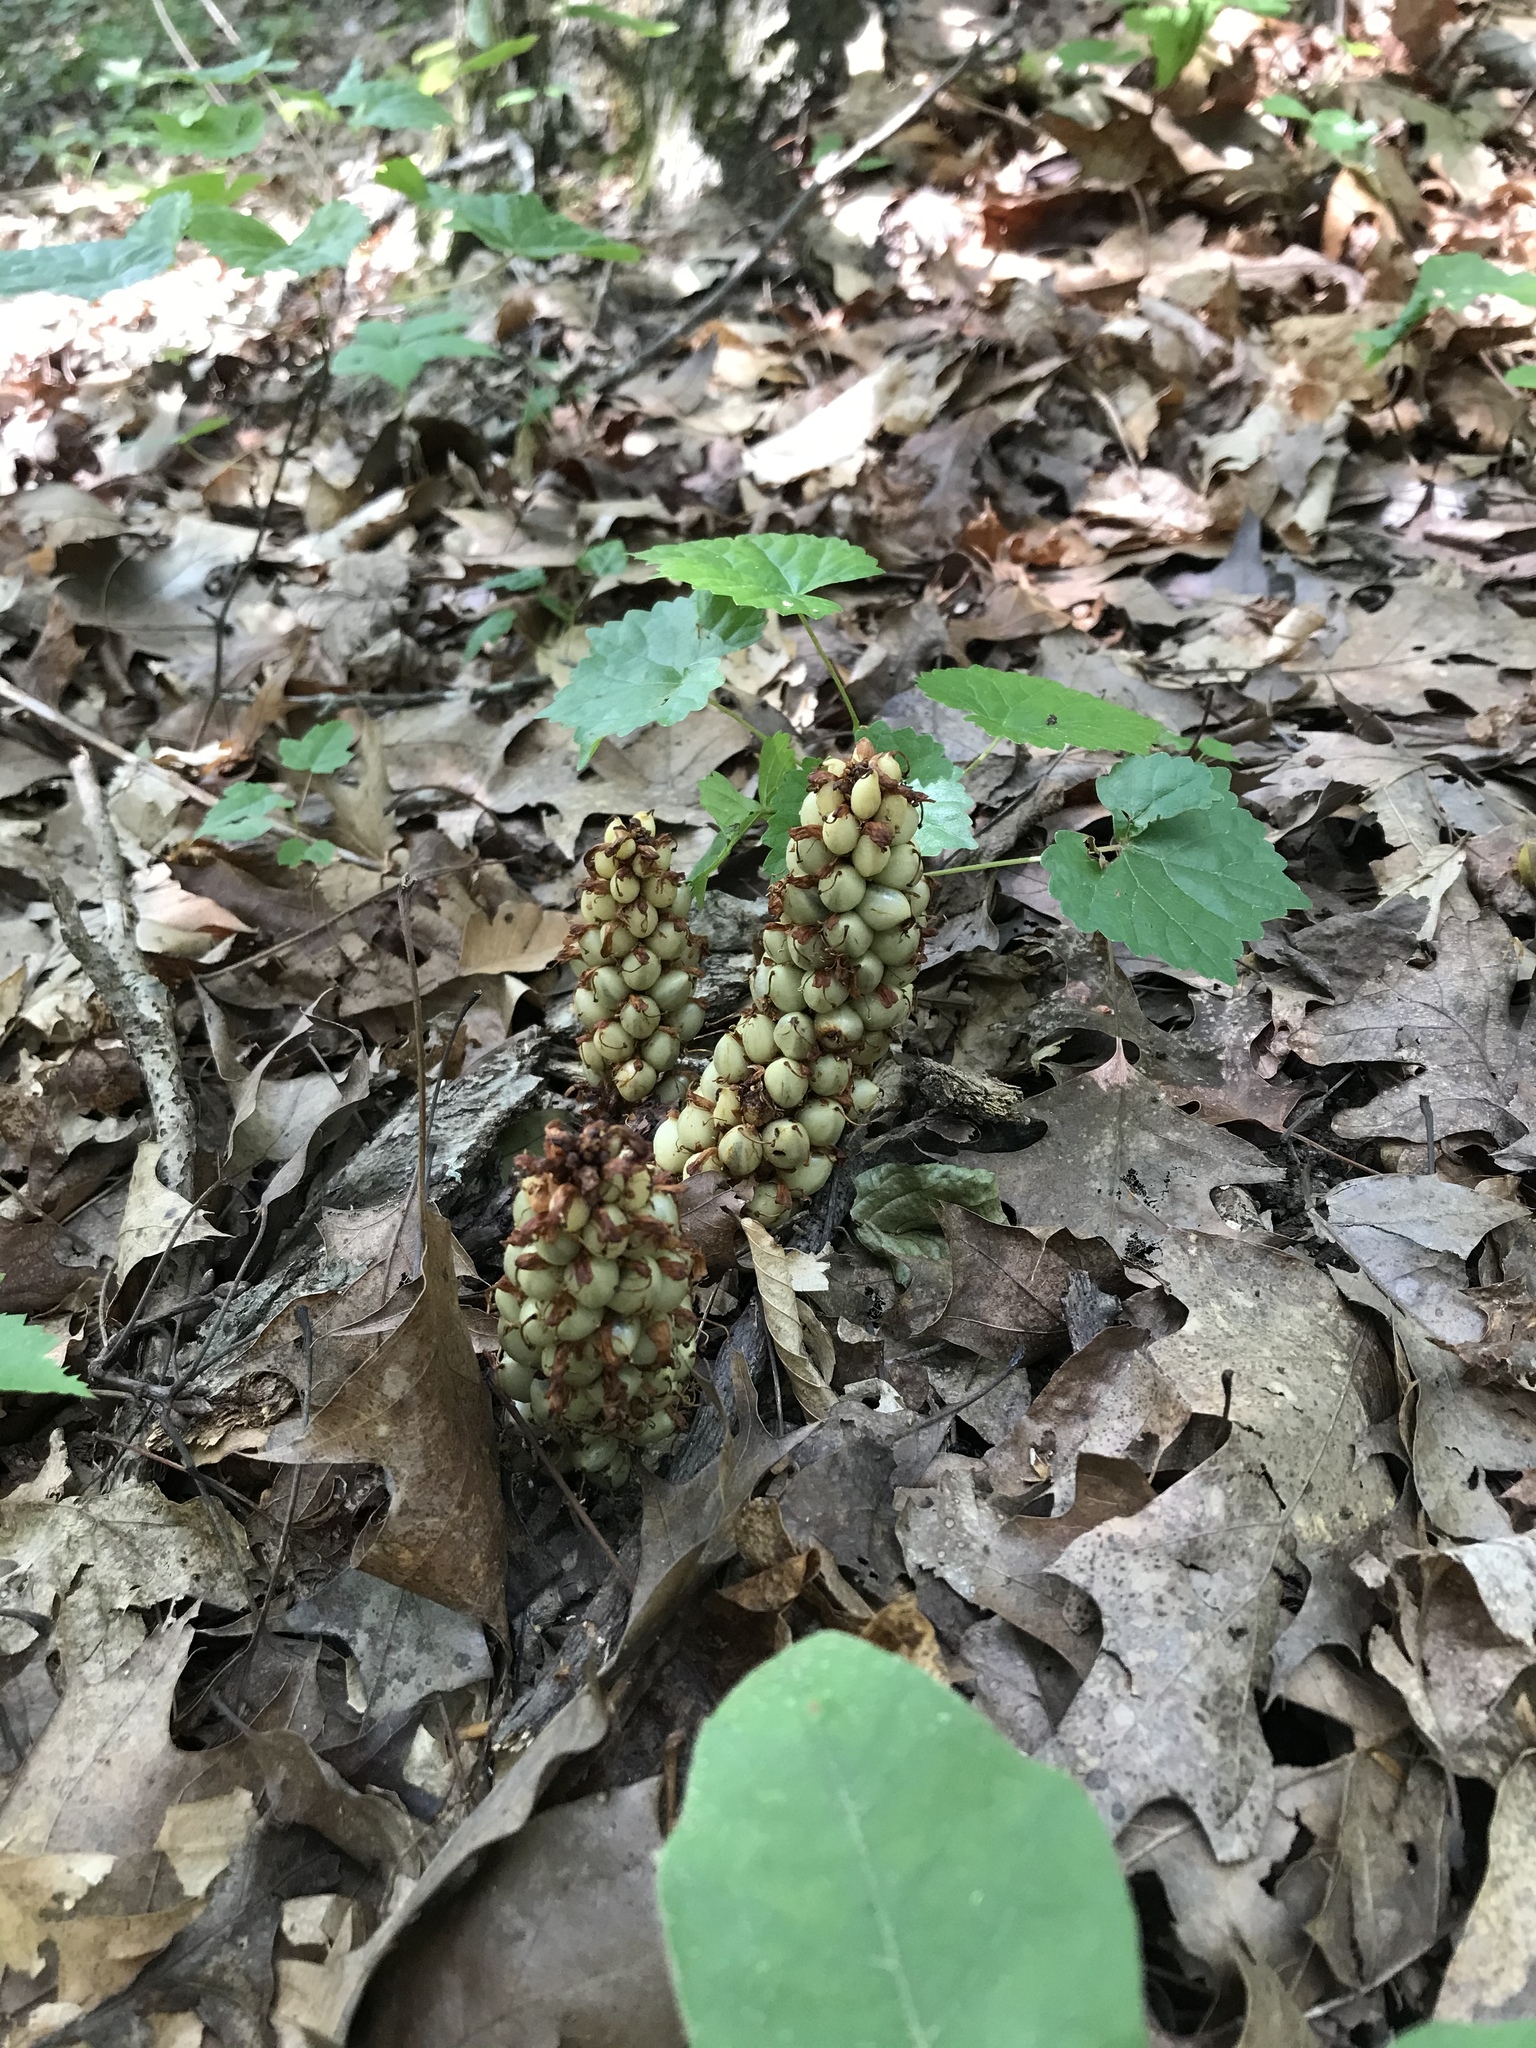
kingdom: Plantae
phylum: Tracheophyta
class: Magnoliopsida
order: Lamiales
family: Orobanchaceae
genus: Conopholis
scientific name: Conopholis americana
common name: American cancer-root
